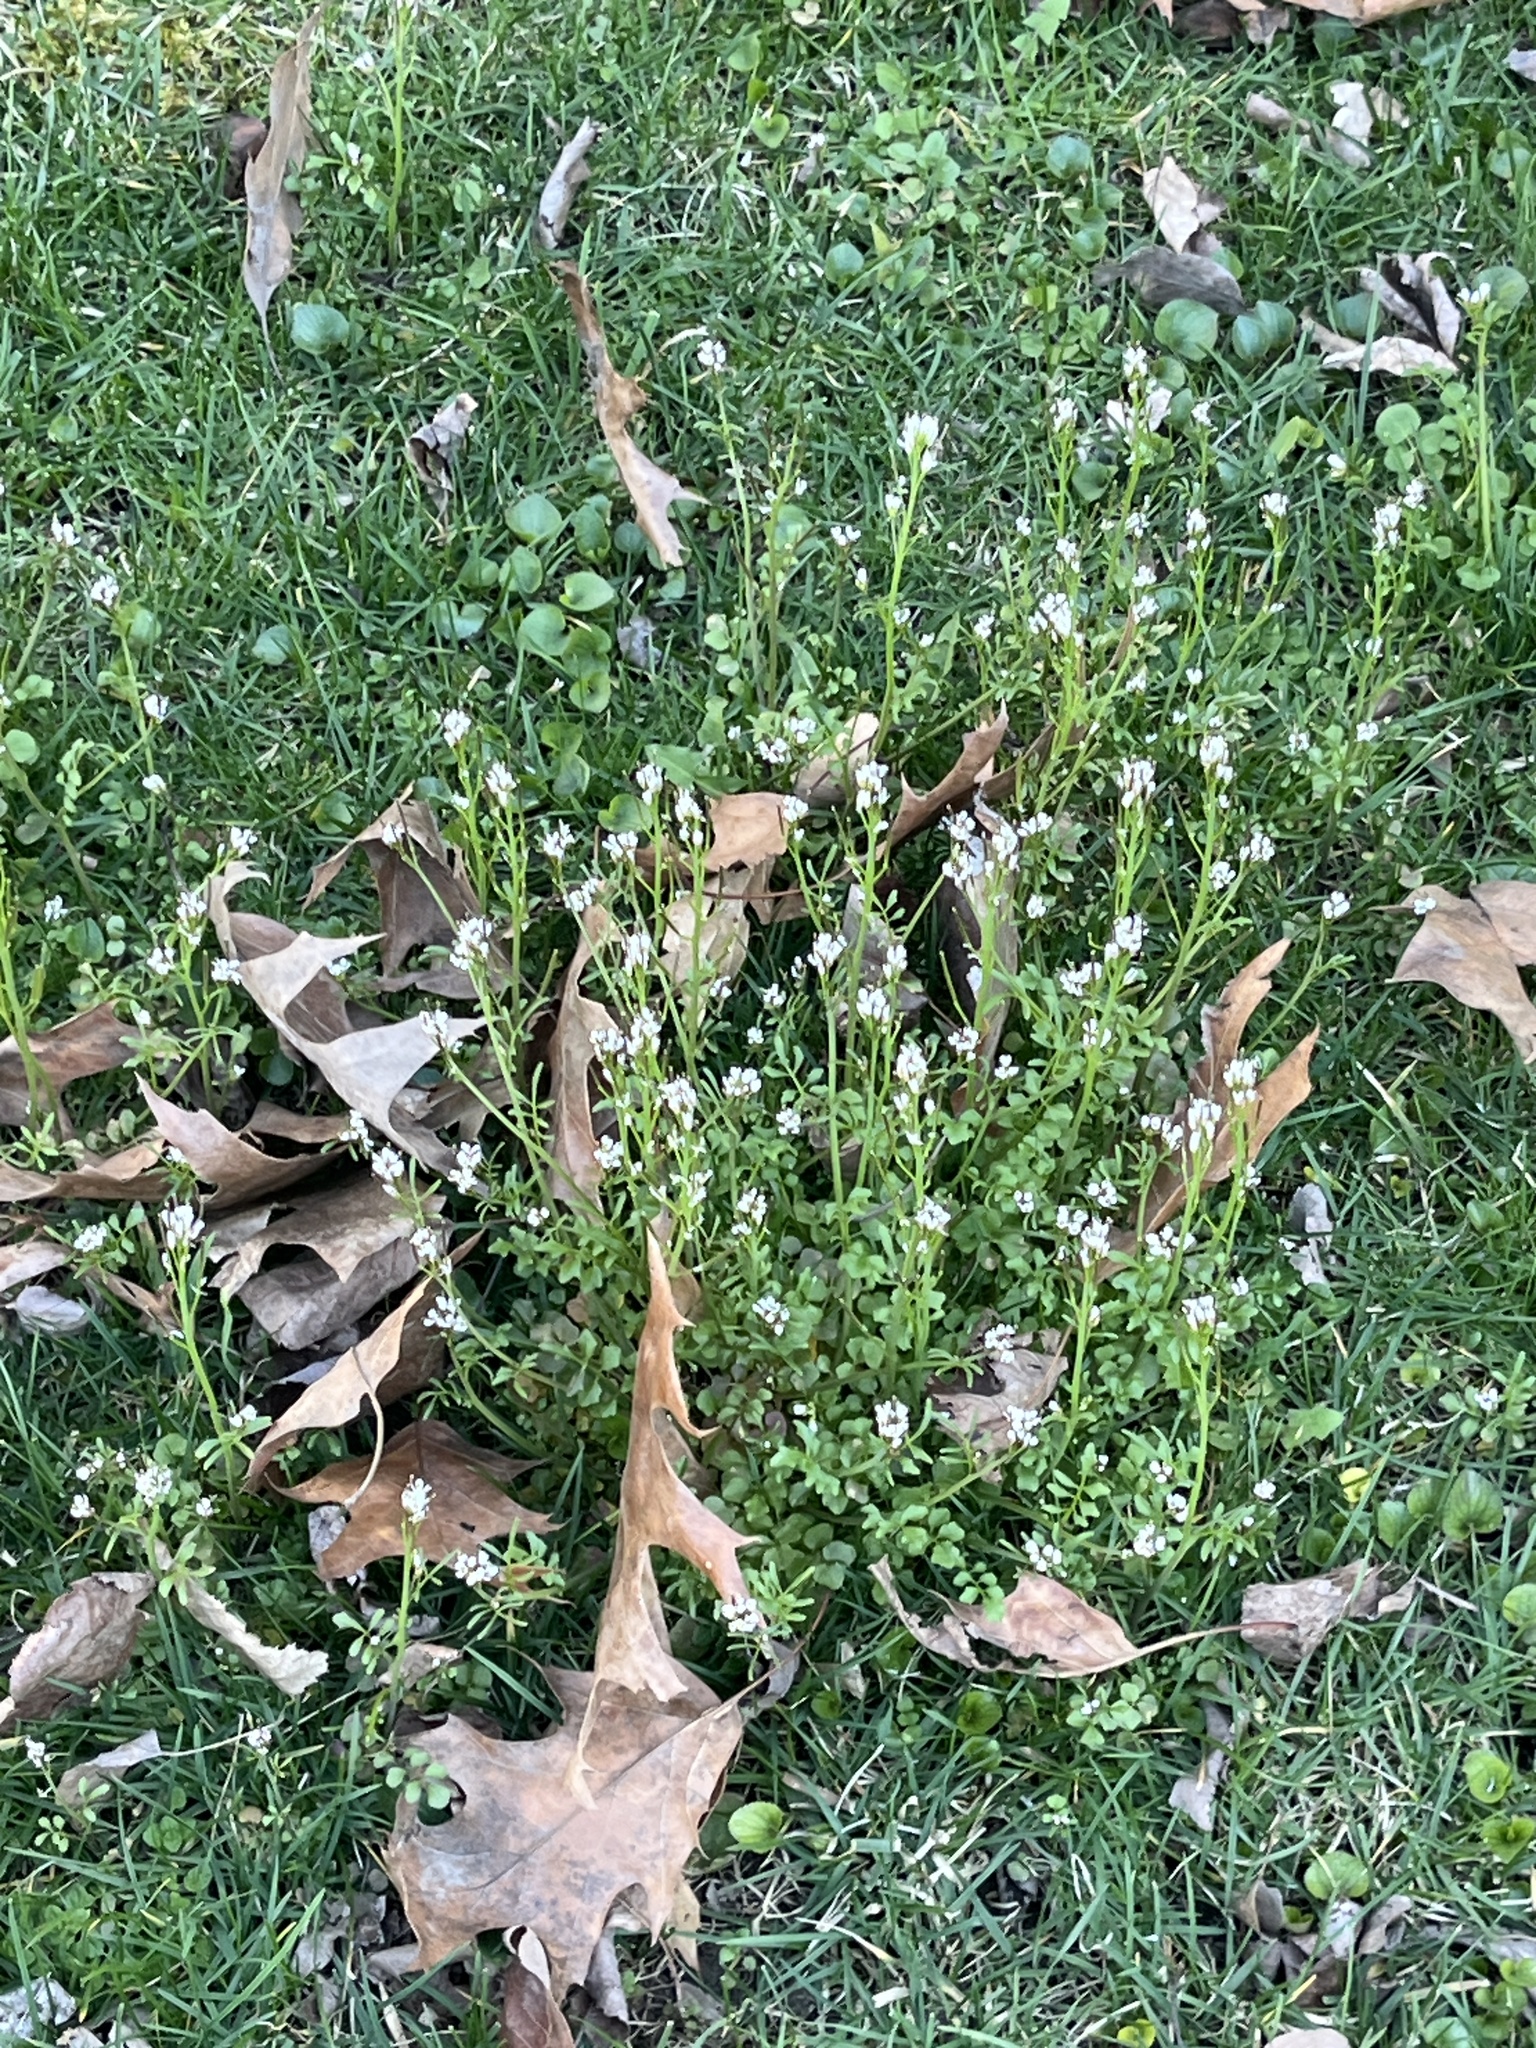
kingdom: Plantae
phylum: Tracheophyta
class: Magnoliopsida
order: Brassicales
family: Brassicaceae
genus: Cardamine
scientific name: Cardamine hirsuta
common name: Hairy bittercress
